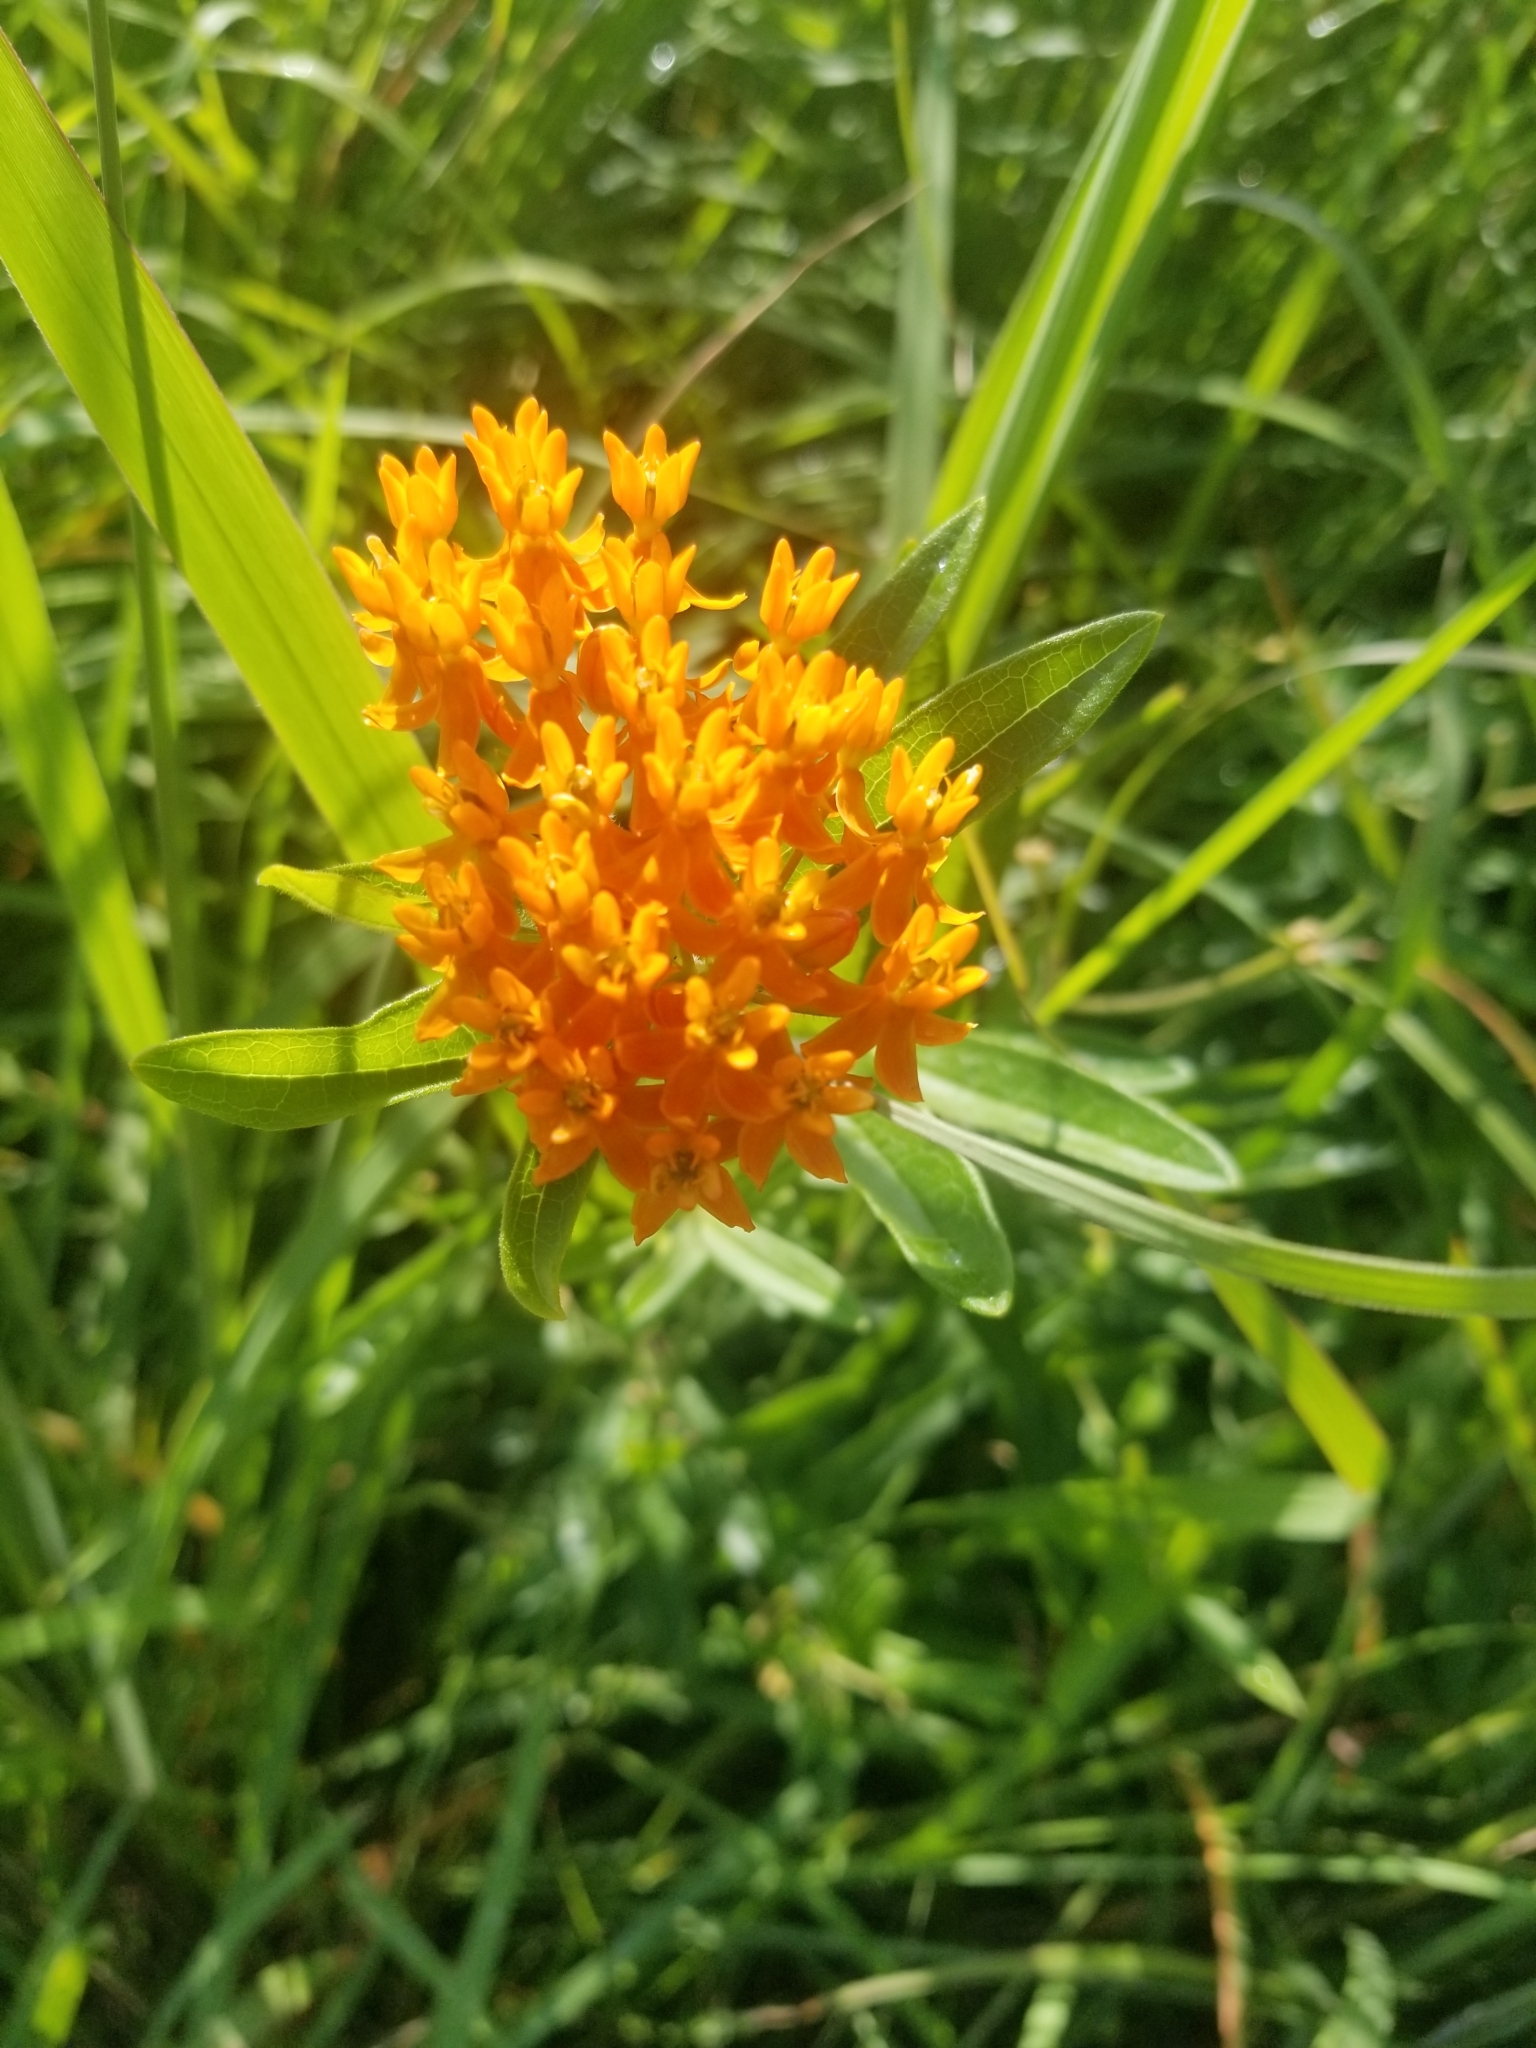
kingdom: Plantae
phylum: Tracheophyta
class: Magnoliopsida
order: Gentianales
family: Apocynaceae
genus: Asclepias
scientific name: Asclepias tuberosa
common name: Butterfly milkweed
